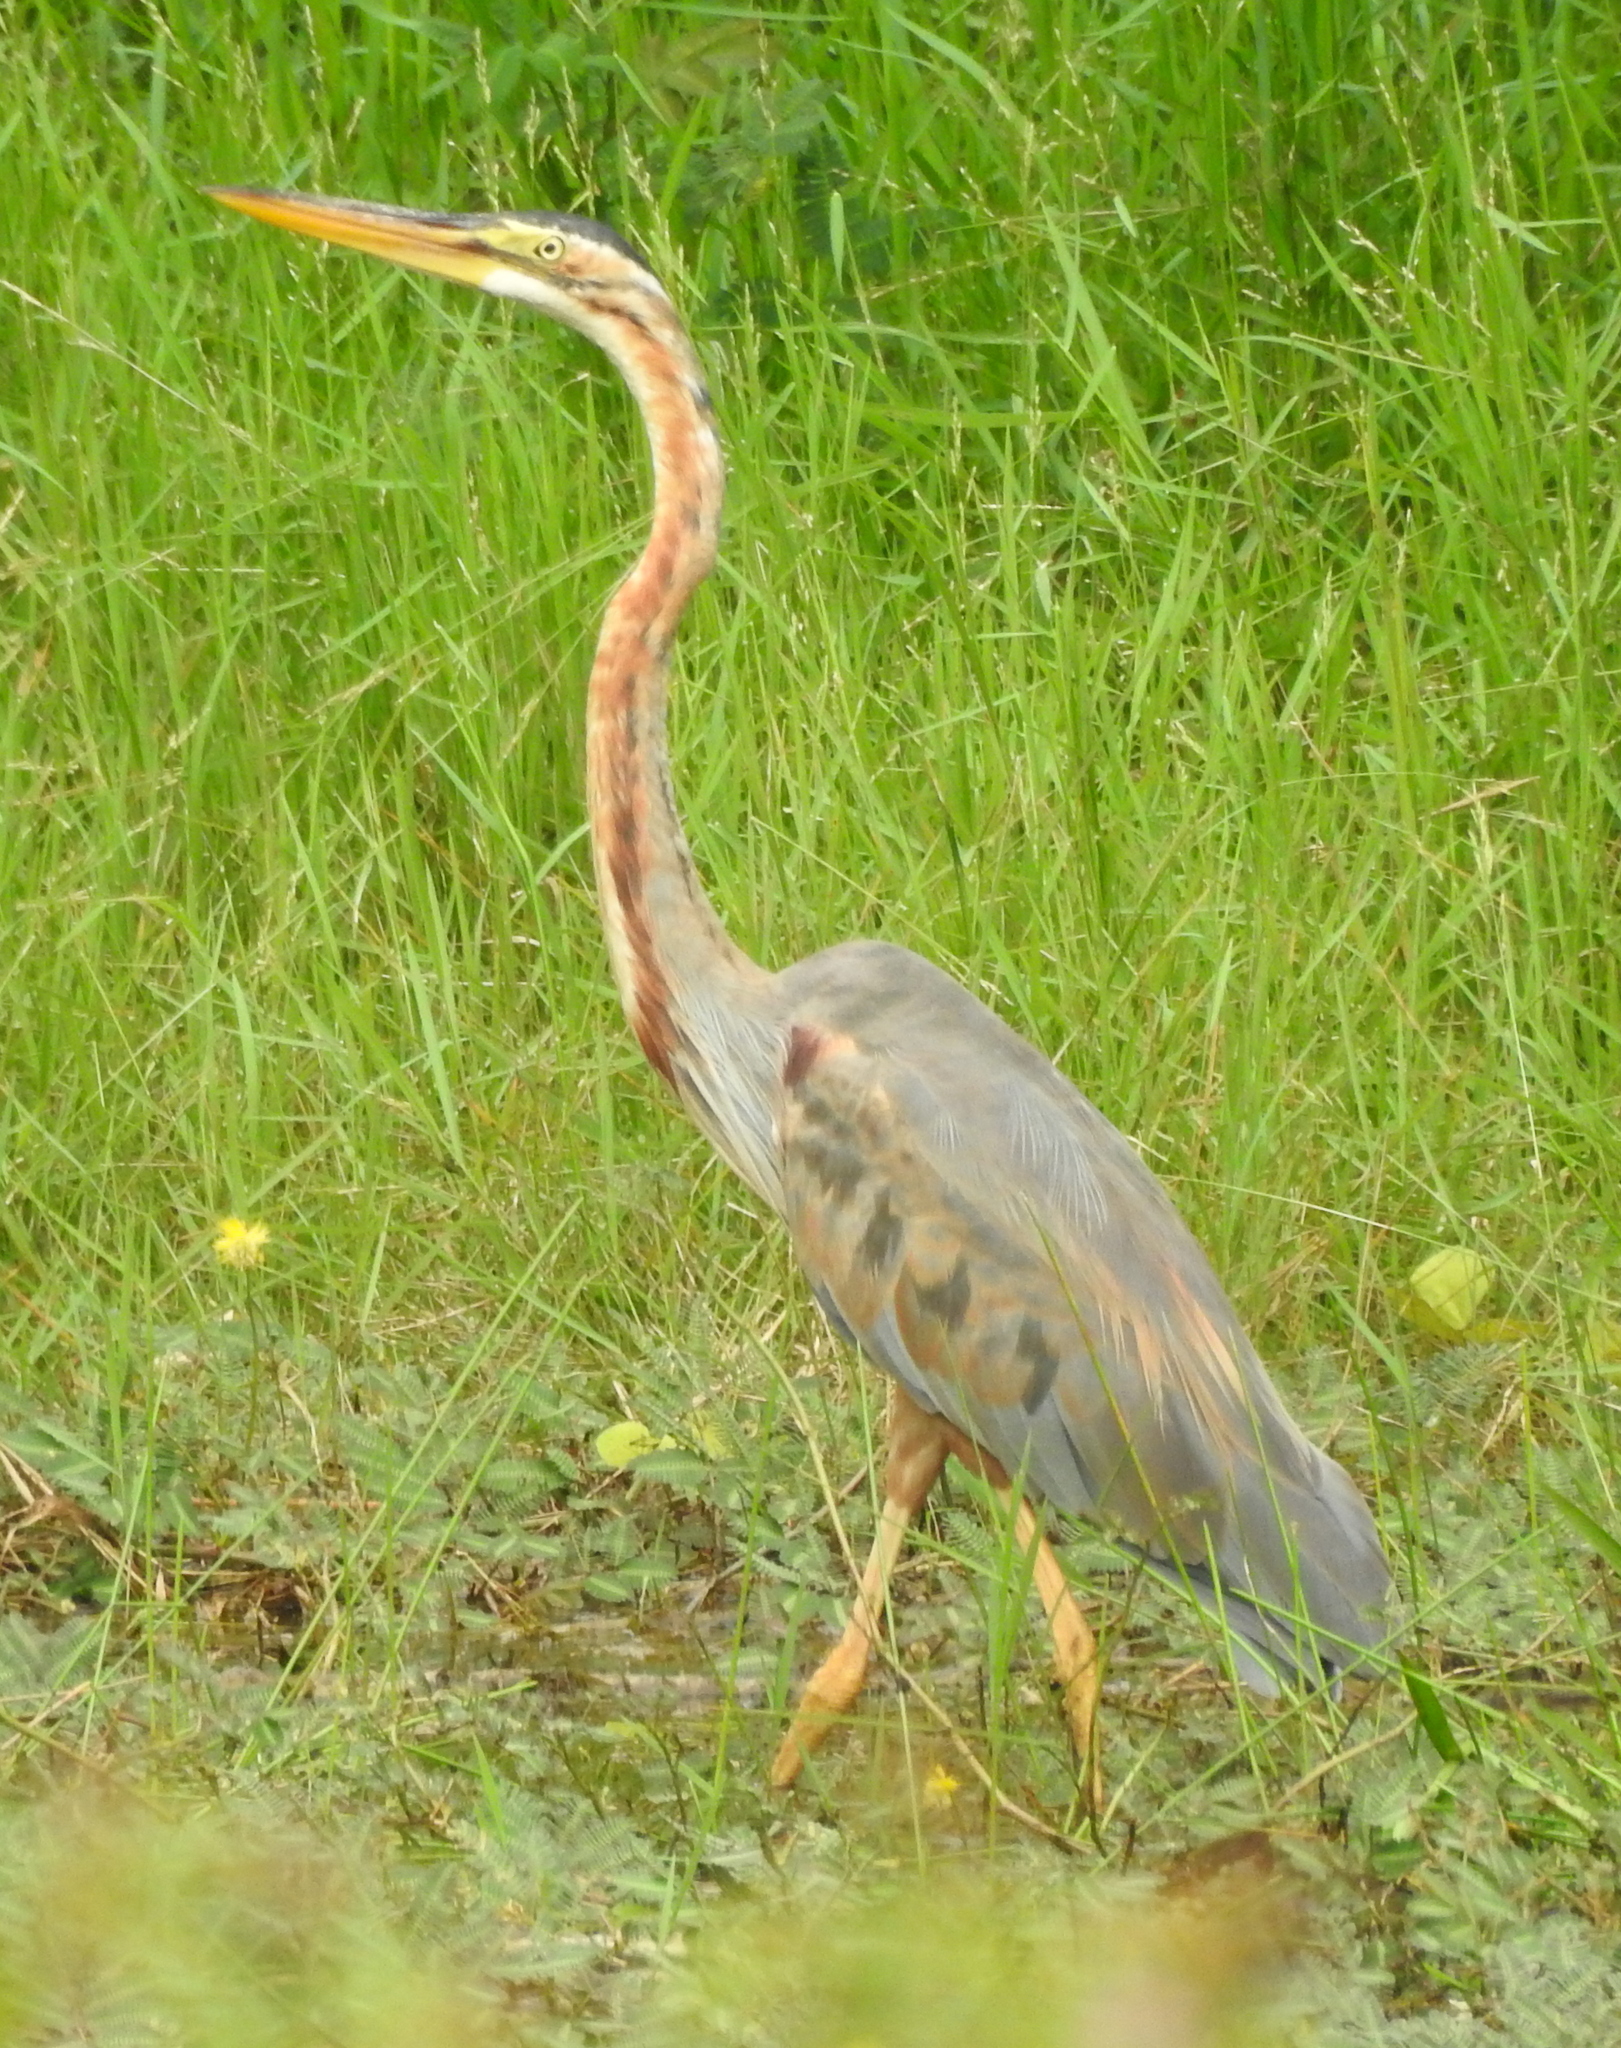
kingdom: Animalia
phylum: Chordata
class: Aves
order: Pelecaniformes
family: Ardeidae
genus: Ardea
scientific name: Ardea purpurea
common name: Purple heron
